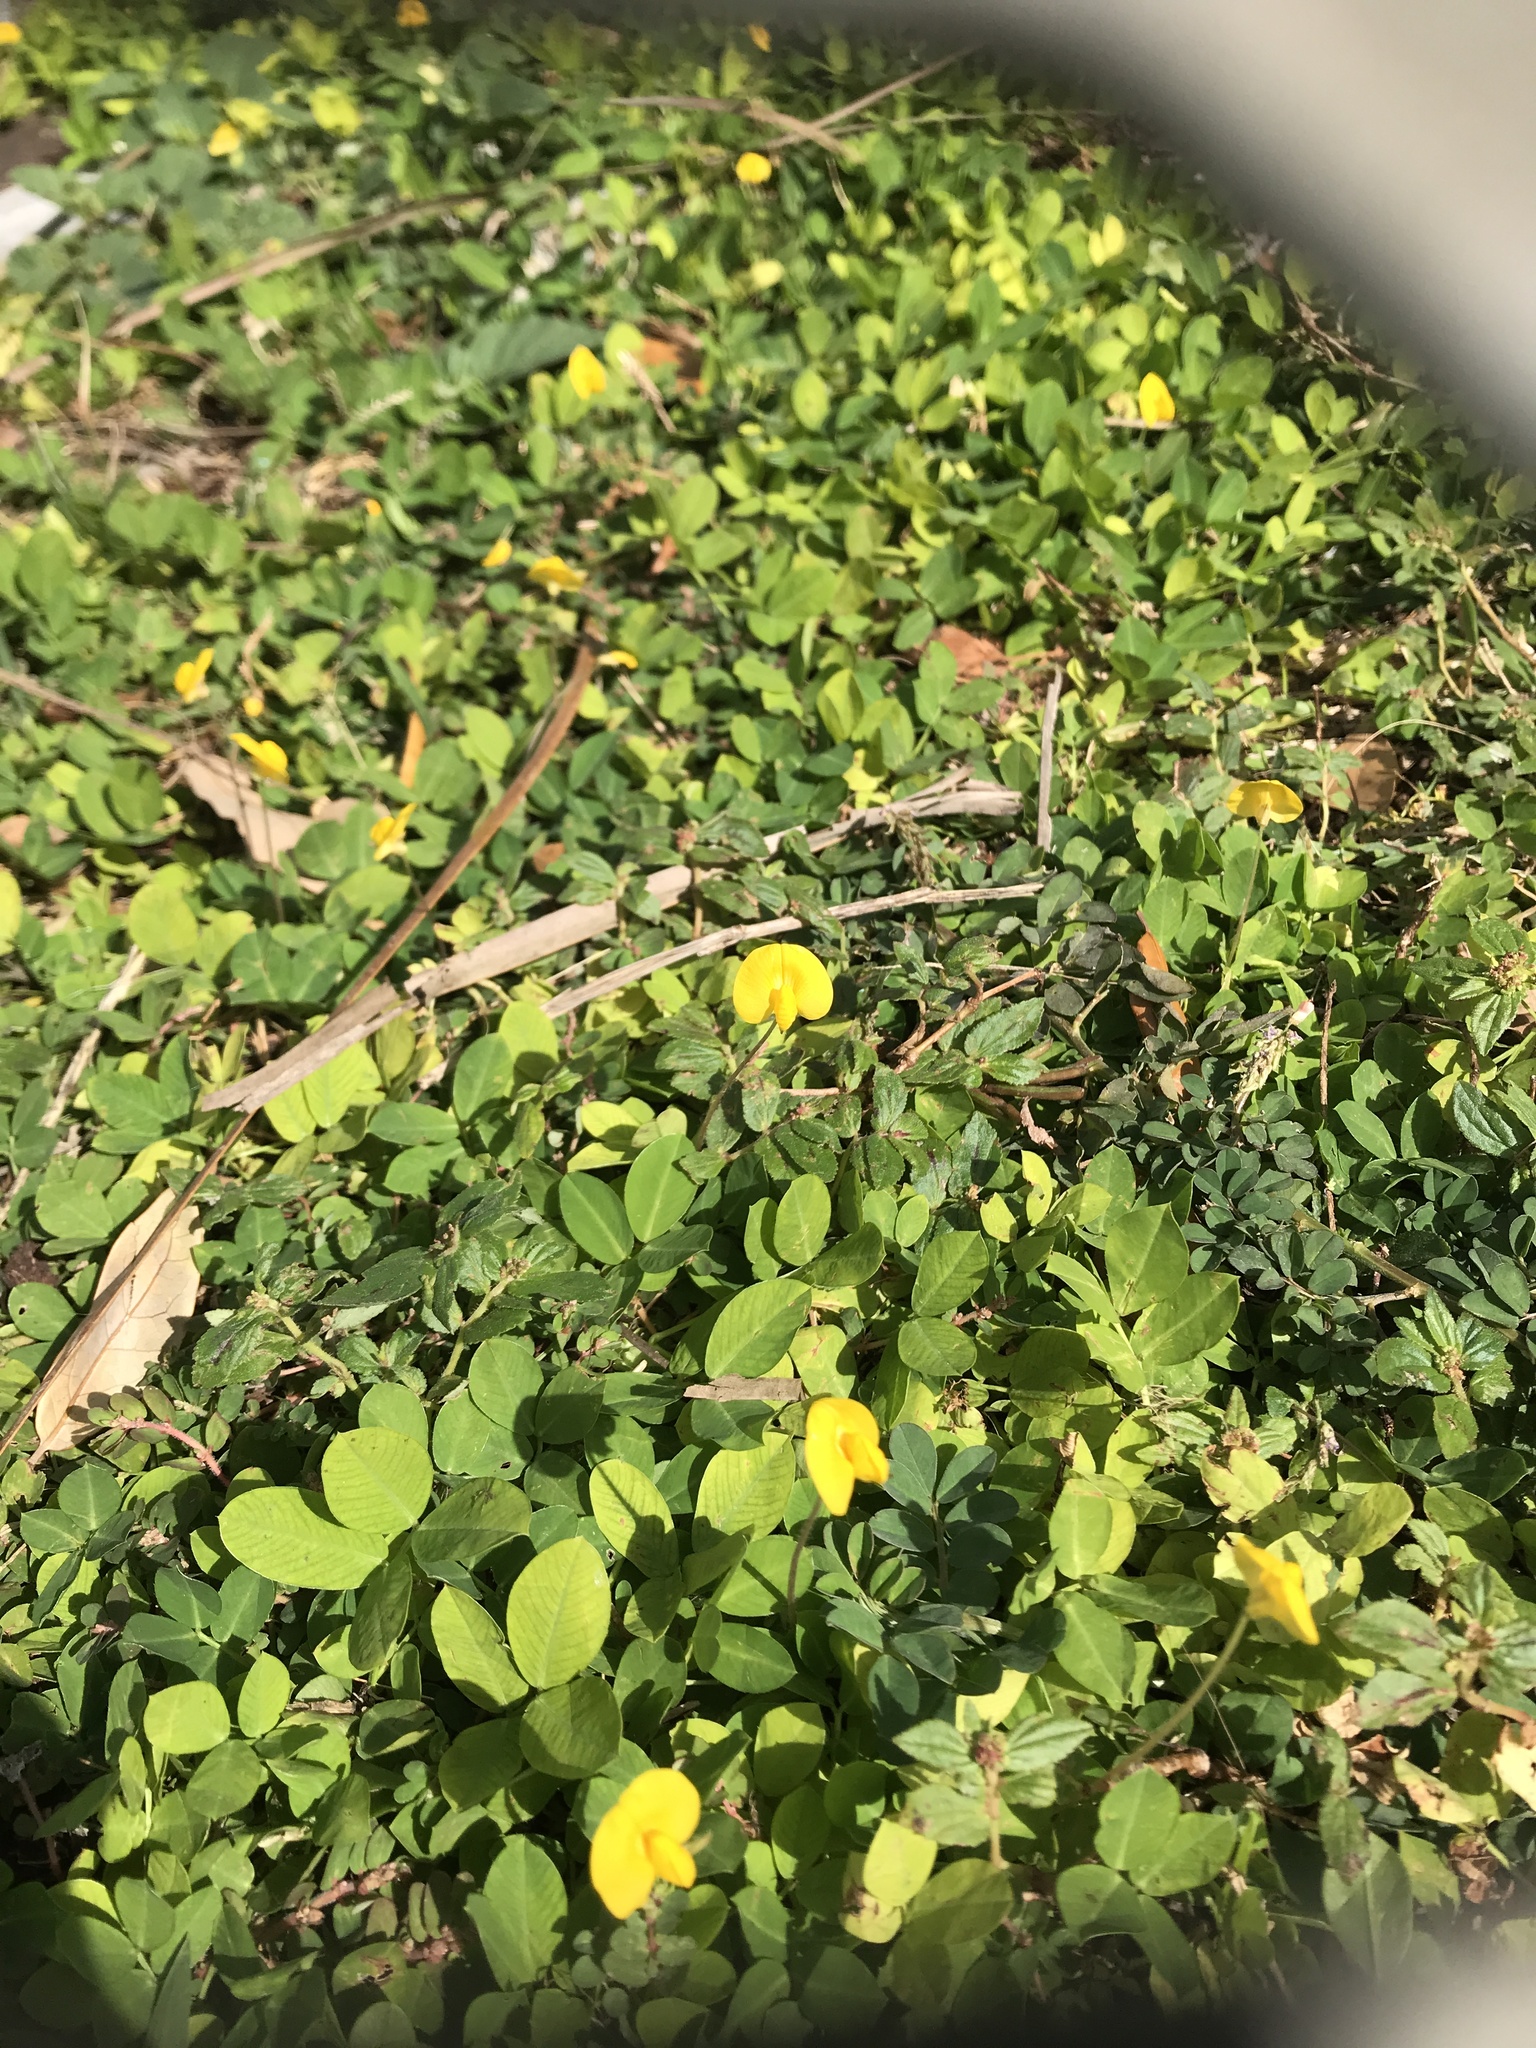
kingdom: Plantae
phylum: Tracheophyta
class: Magnoliopsida
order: Fabales
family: Fabaceae
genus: Arachis
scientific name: Arachis pintoi
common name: Pinto peanut
